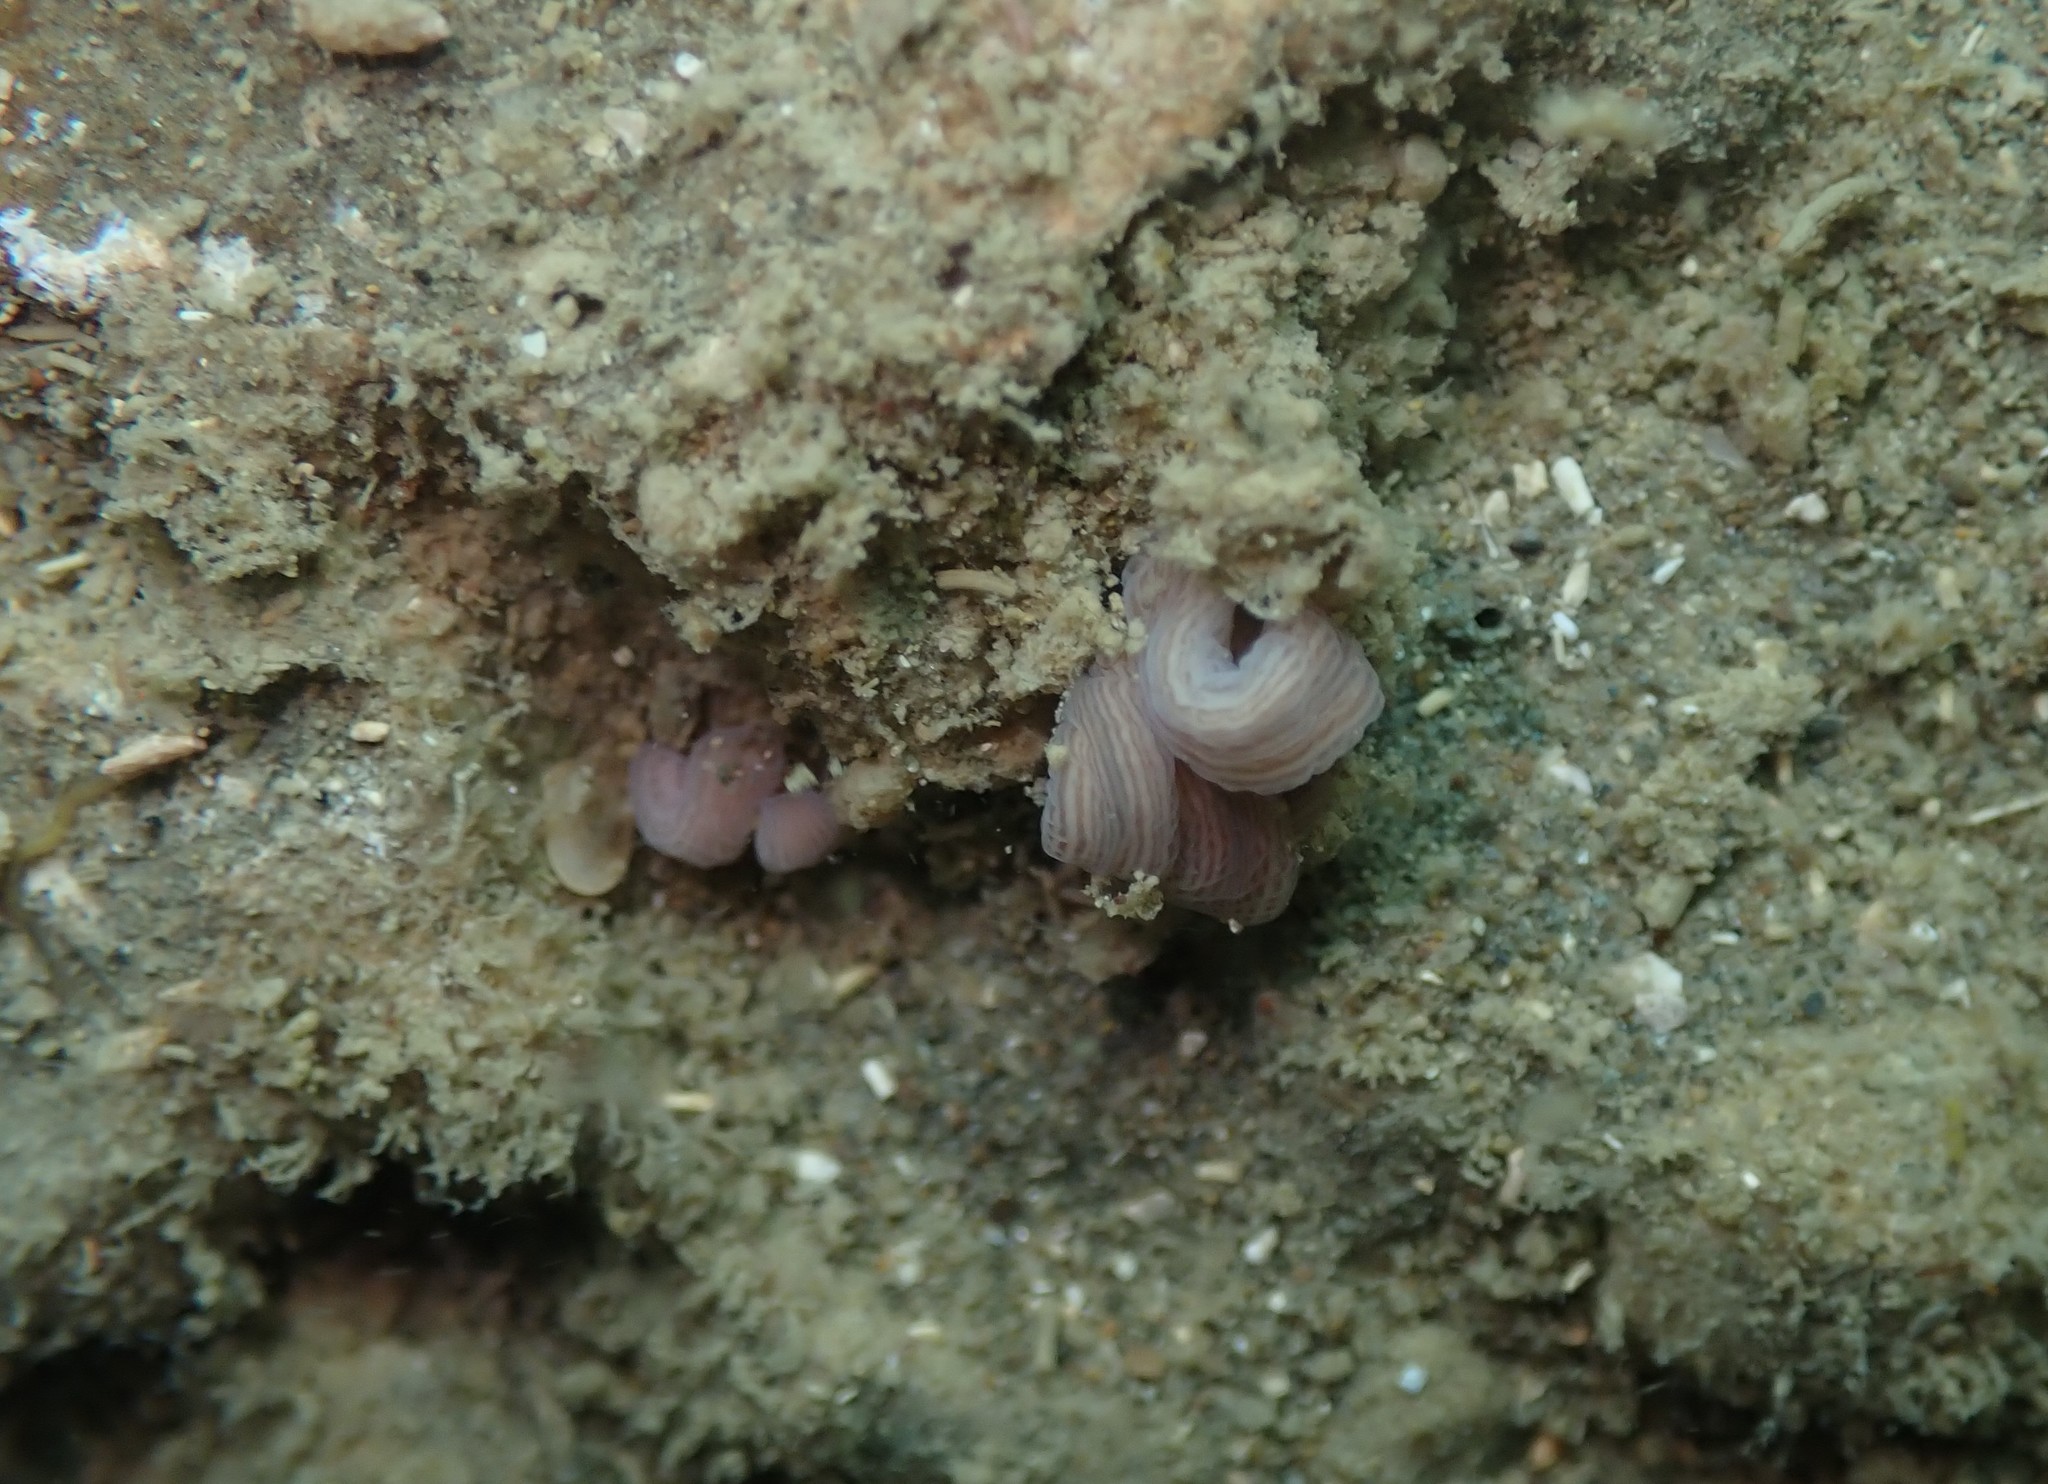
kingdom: Animalia
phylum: Nemertea
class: Pilidiophora
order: Heteronemertea
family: Valenciniidae
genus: Baseodiscus
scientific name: Baseodiscus delineatus
